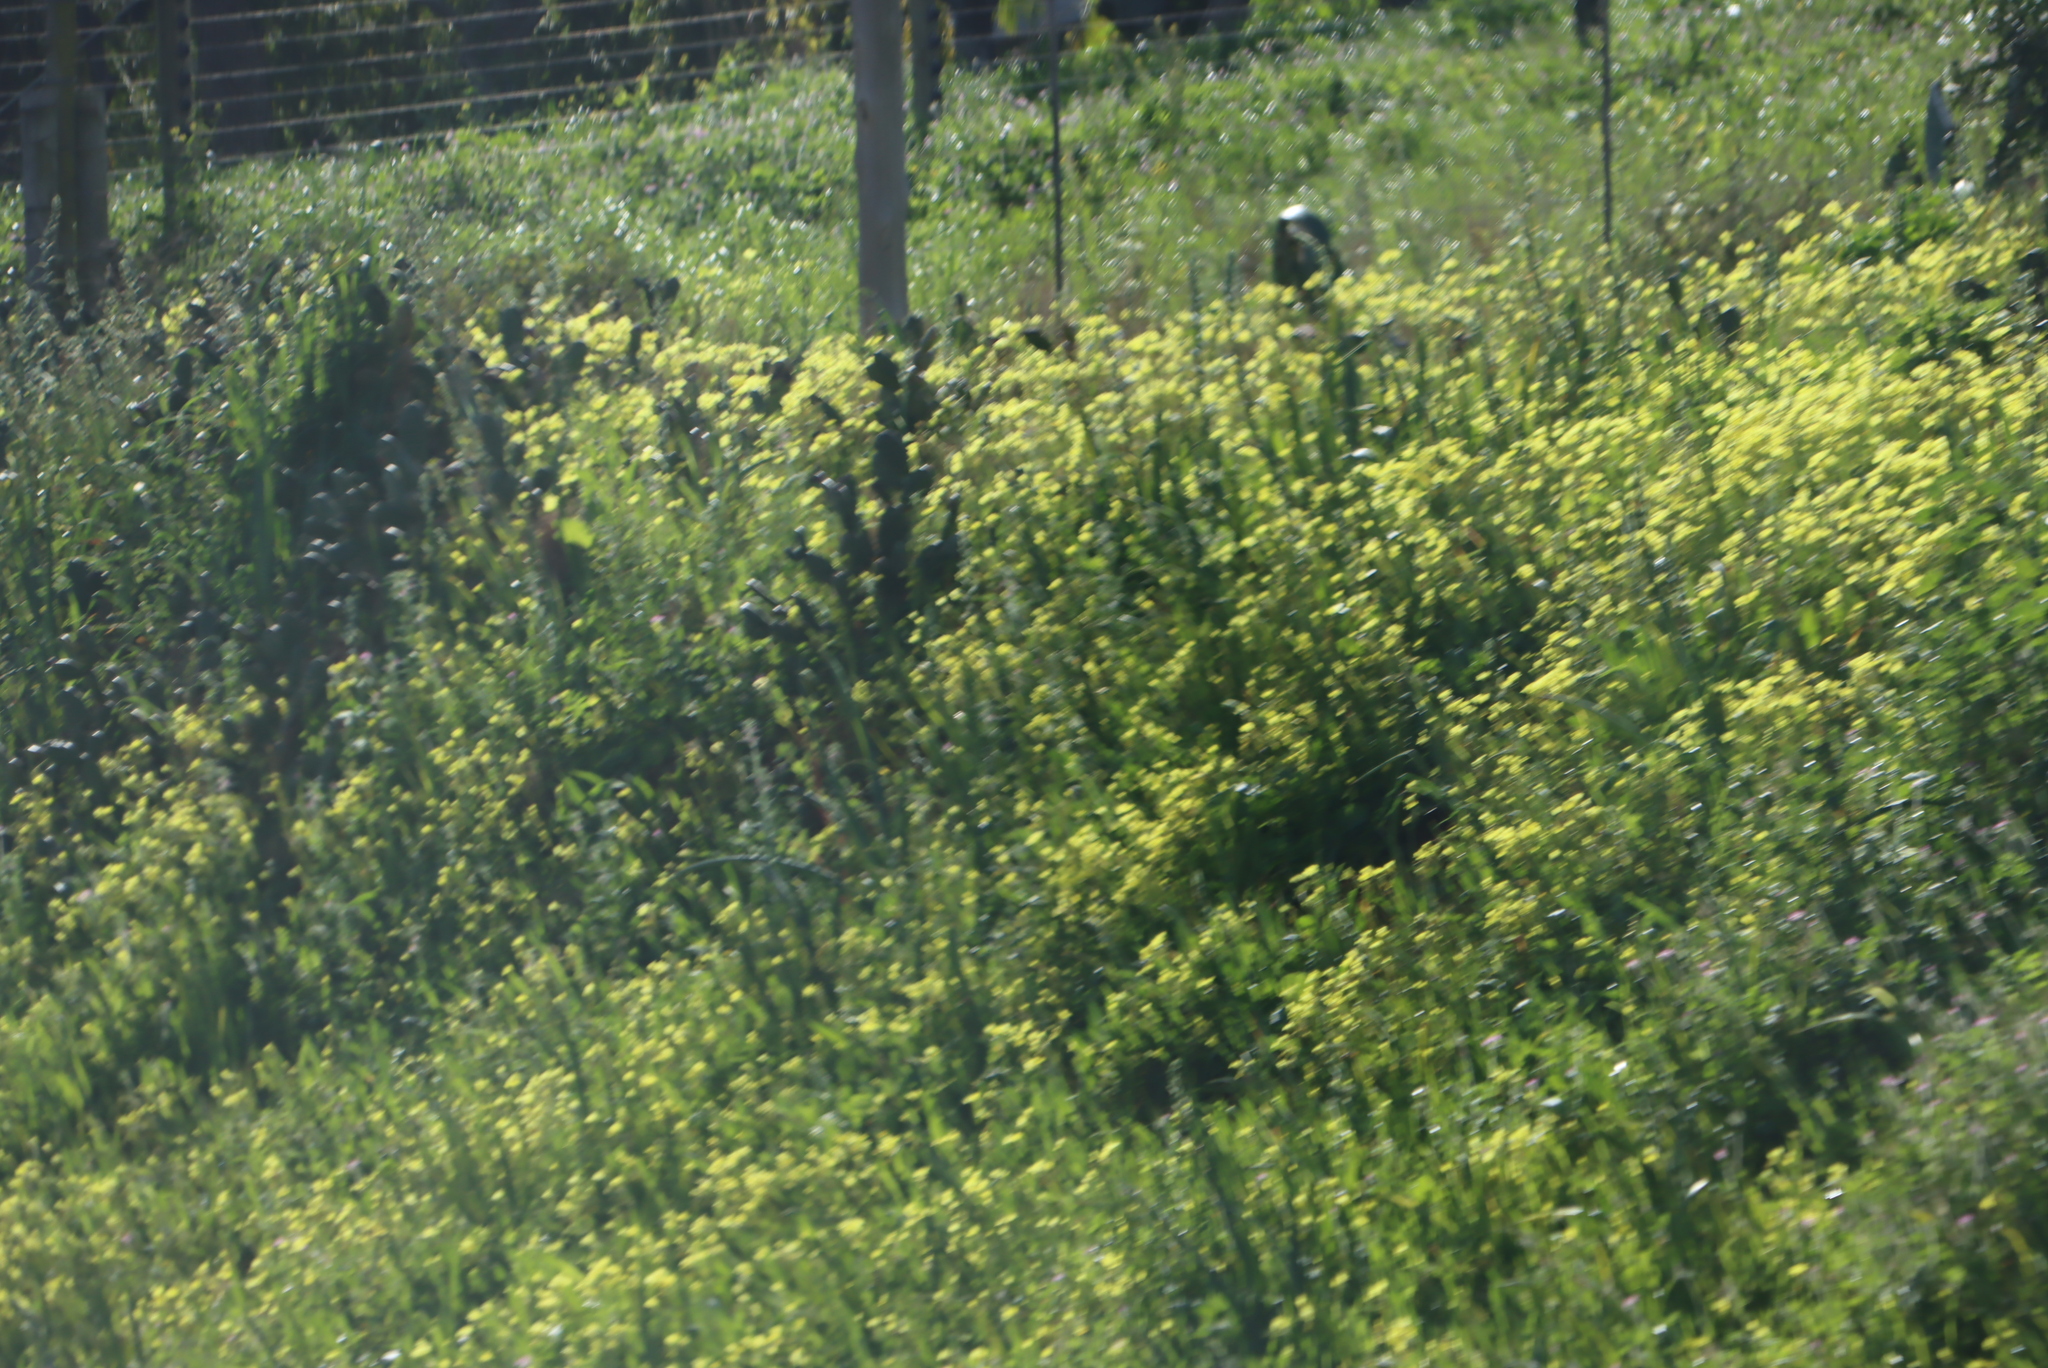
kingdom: Plantae
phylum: Tracheophyta
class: Magnoliopsida
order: Oxalidales
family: Oxalidaceae
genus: Oxalis
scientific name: Oxalis pes-caprae
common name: Bermuda-buttercup
